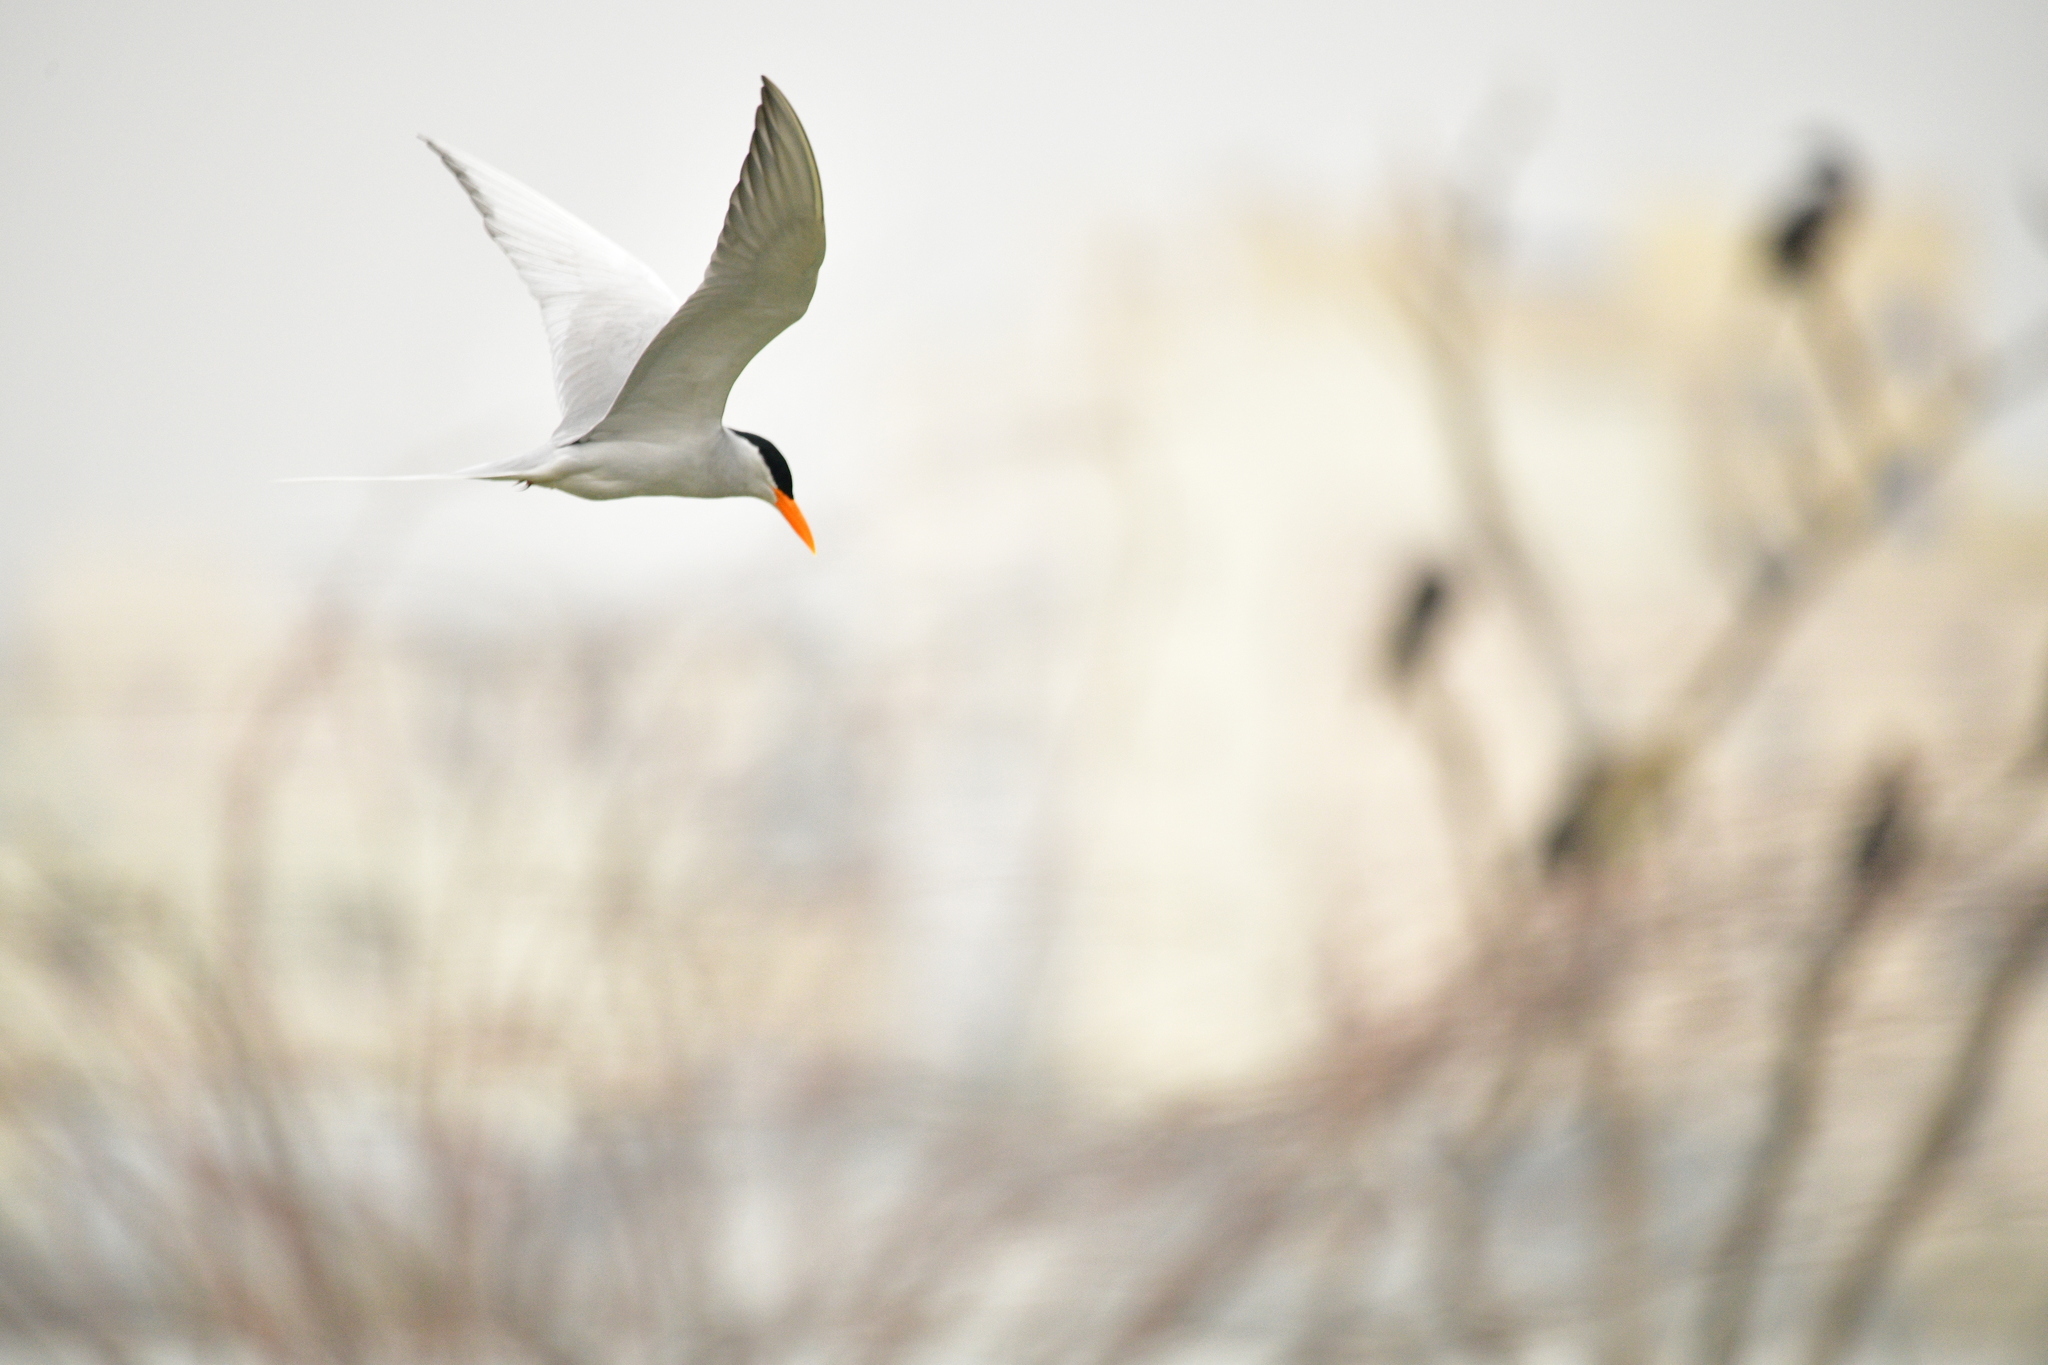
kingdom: Animalia
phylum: Chordata
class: Aves
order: Charadriiformes
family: Laridae
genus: Sterna
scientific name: Sterna aurantia
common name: River tern
